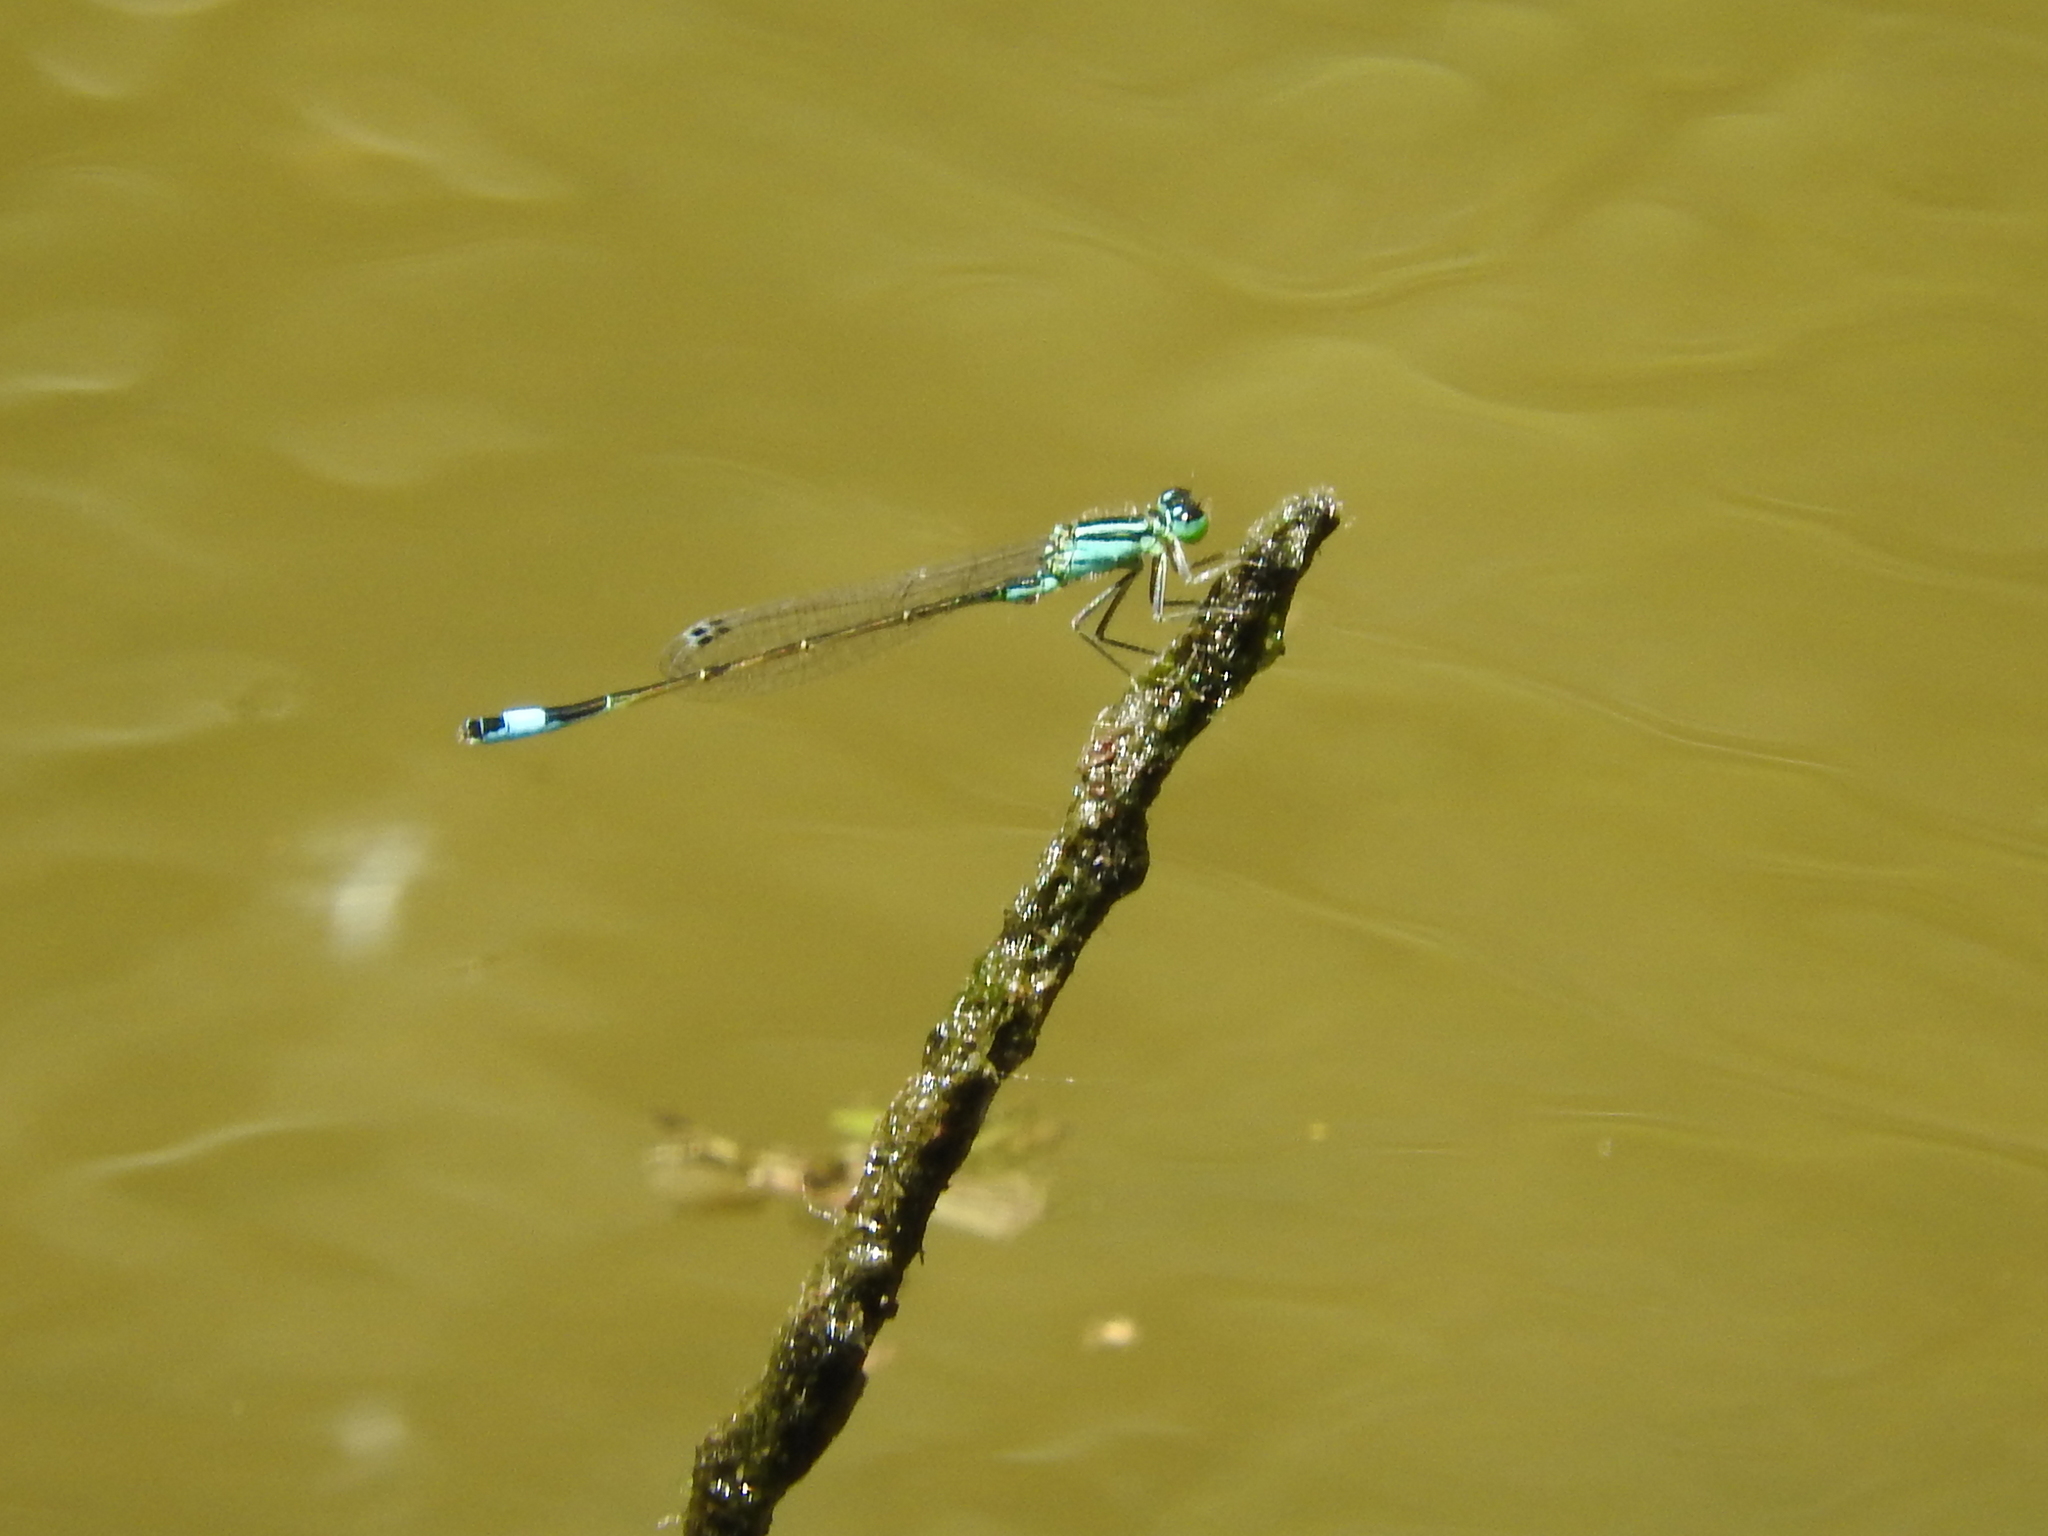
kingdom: Animalia
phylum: Arthropoda
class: Insecta
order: Odonata
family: Coenagrionidae
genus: Ischnura
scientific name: Ischnura elegans
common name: Blue-tailed damselfly
